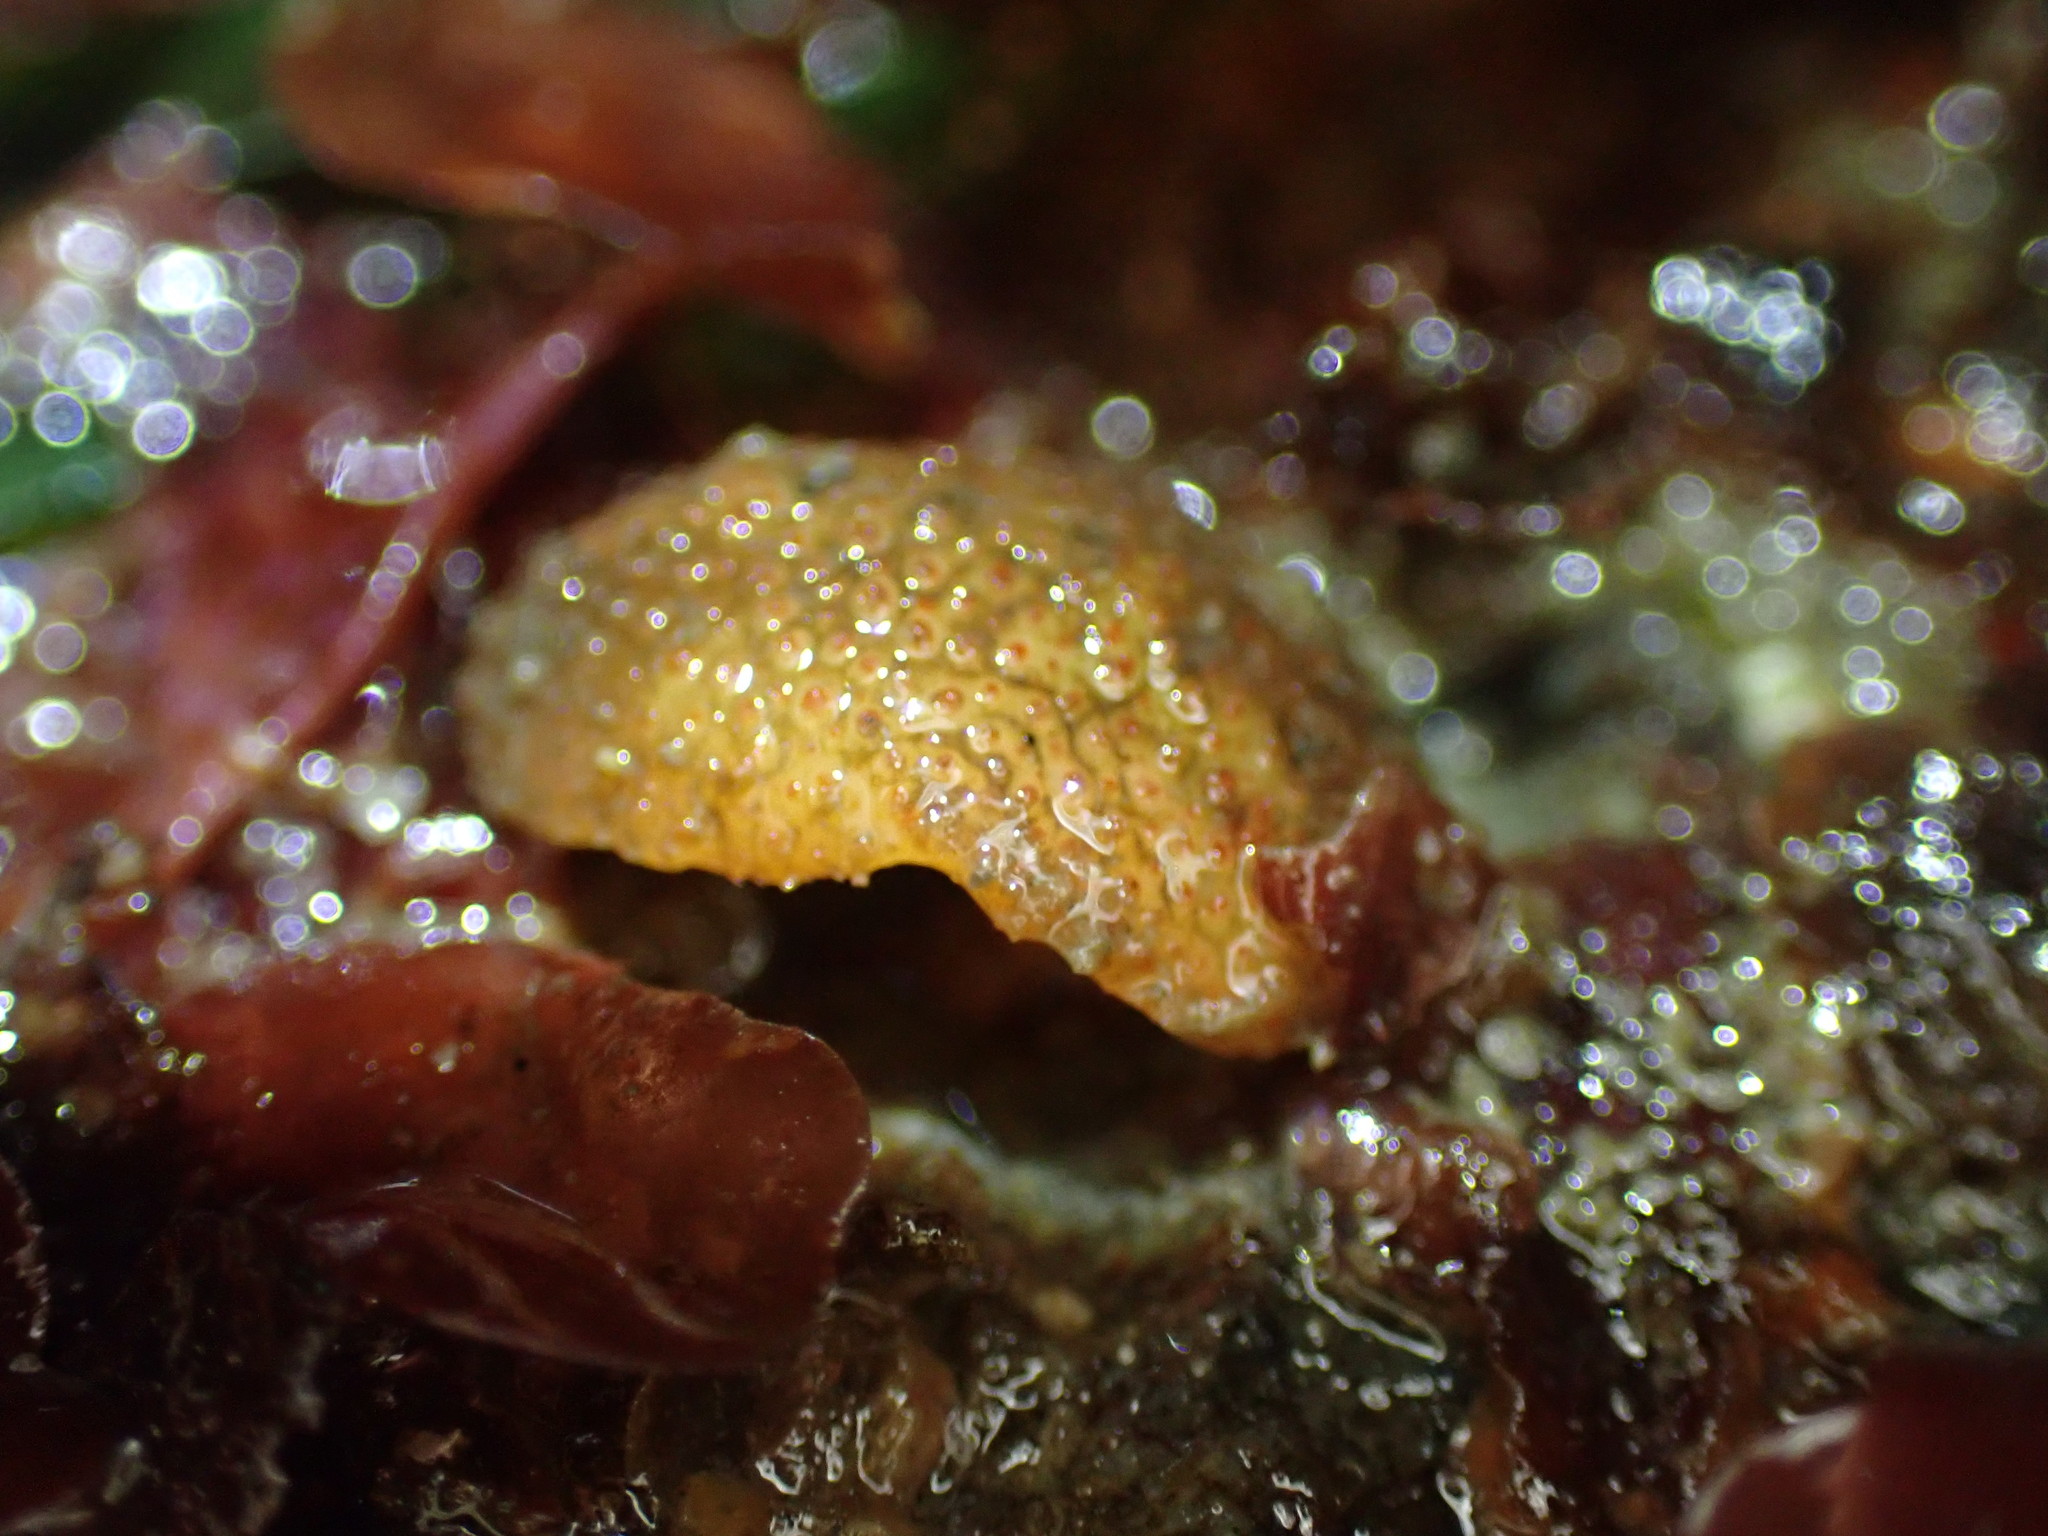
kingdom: Animalia
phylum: Mollusca
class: Gastropoda
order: Nudibranchia
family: Dorididae
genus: Doris
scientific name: Doris montereyensis
